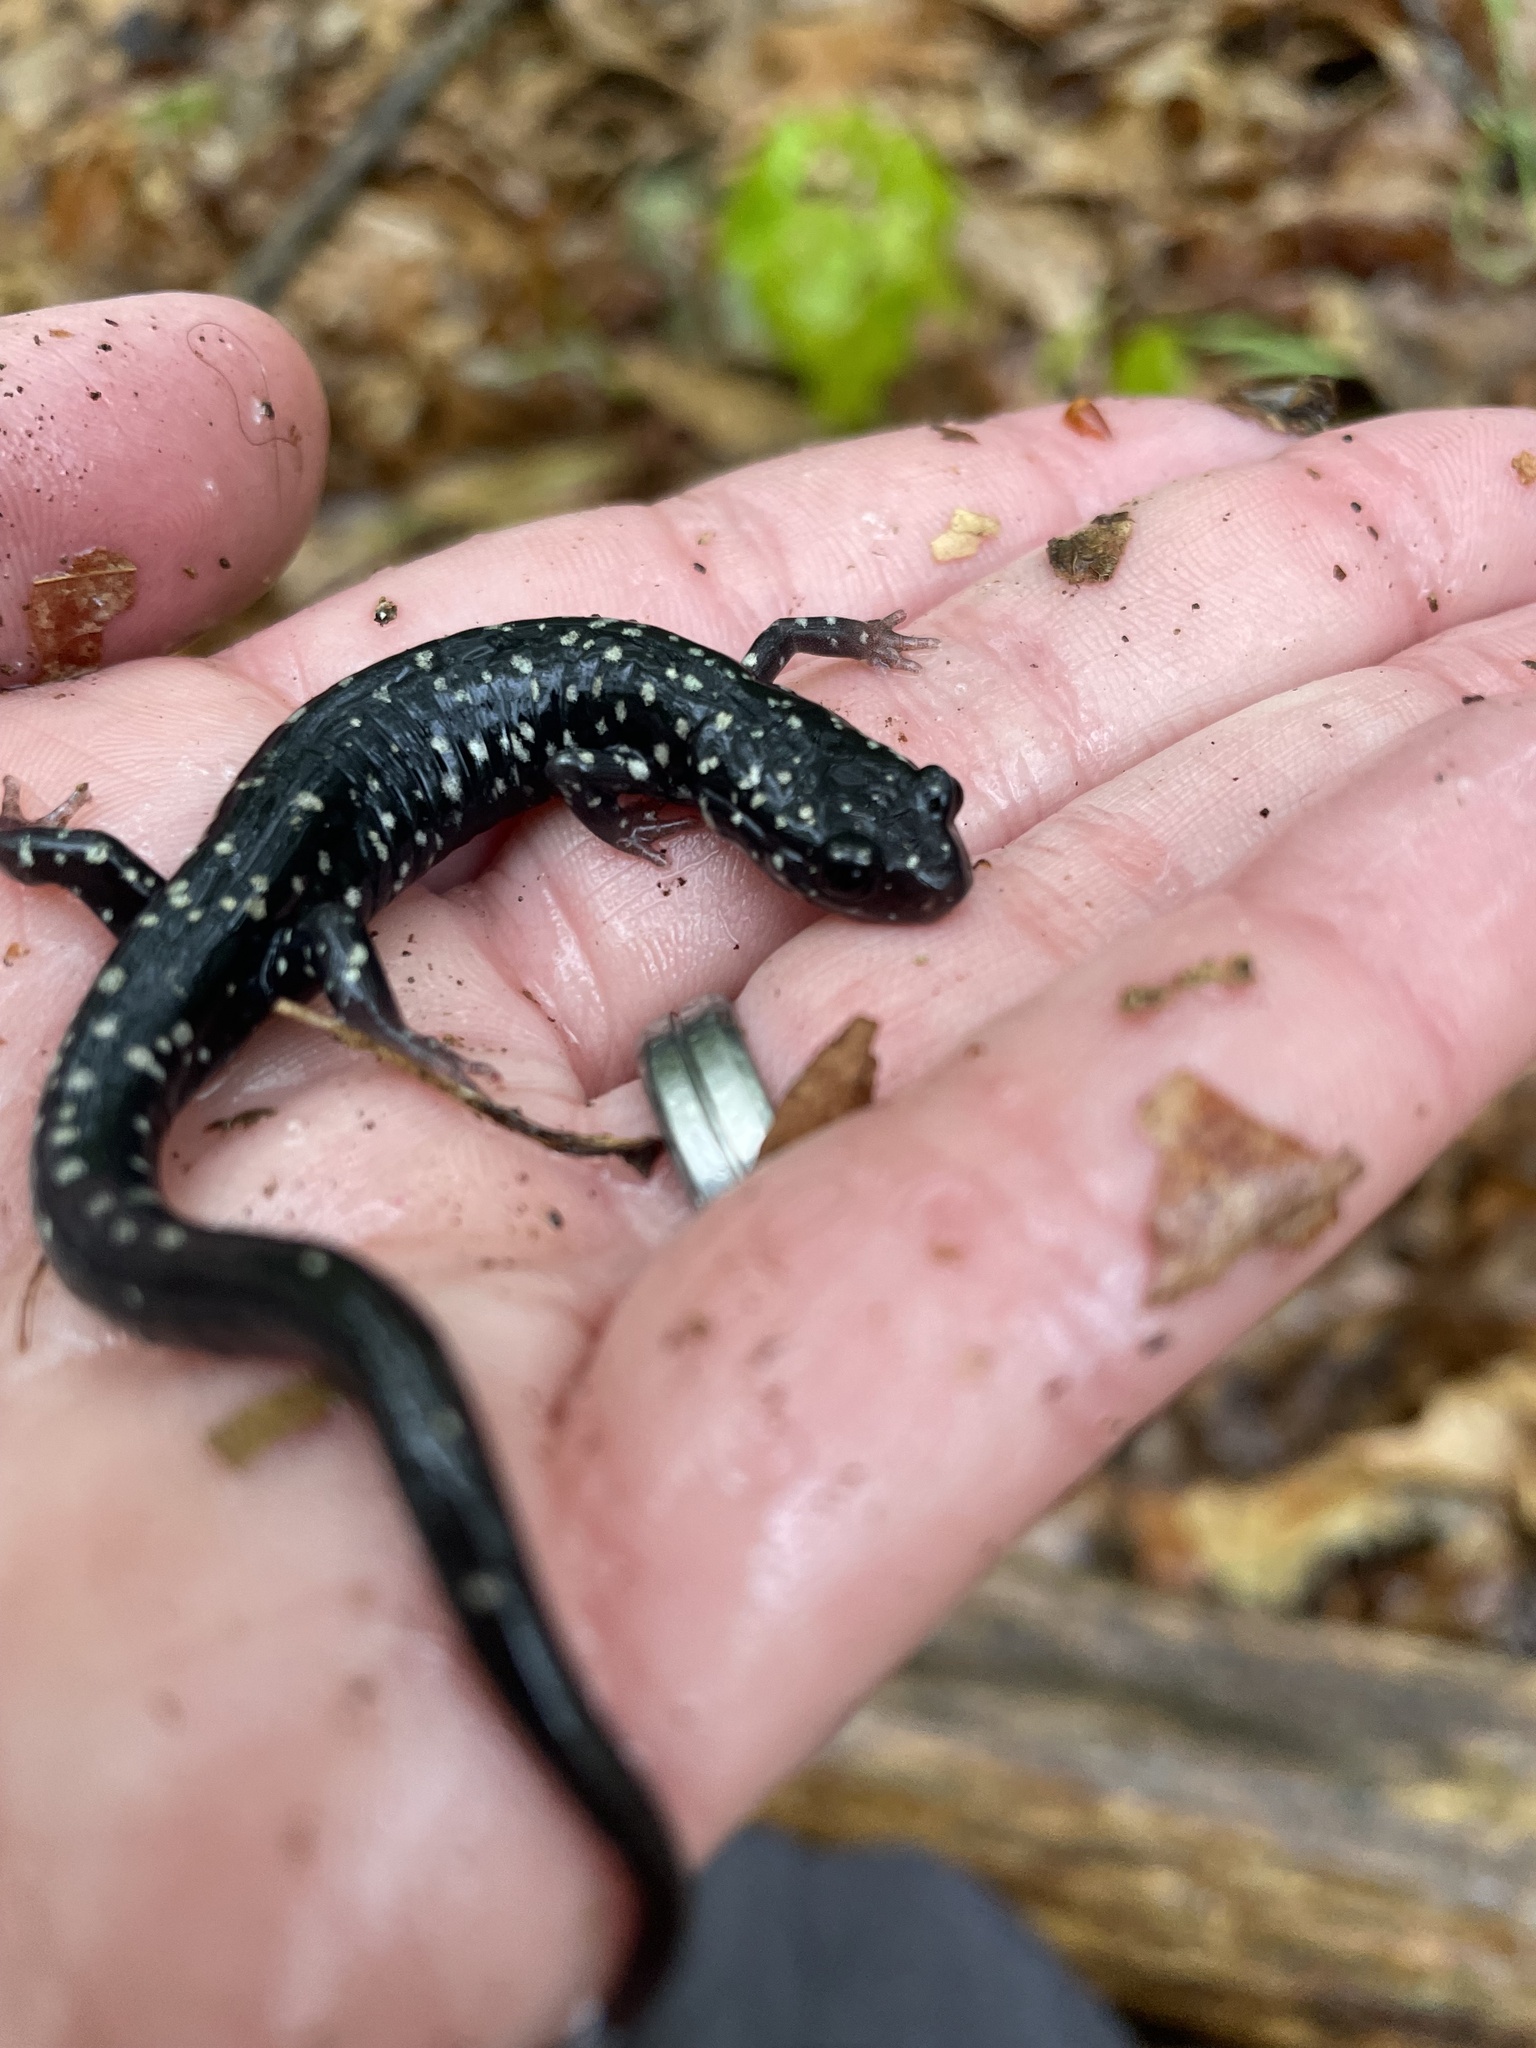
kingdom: Animalia
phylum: Chordata
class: Amphibia
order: Caudata
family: Plethodontidae
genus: Plethodon
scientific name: Plethodon glutinosus
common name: Northern slimy salamander
